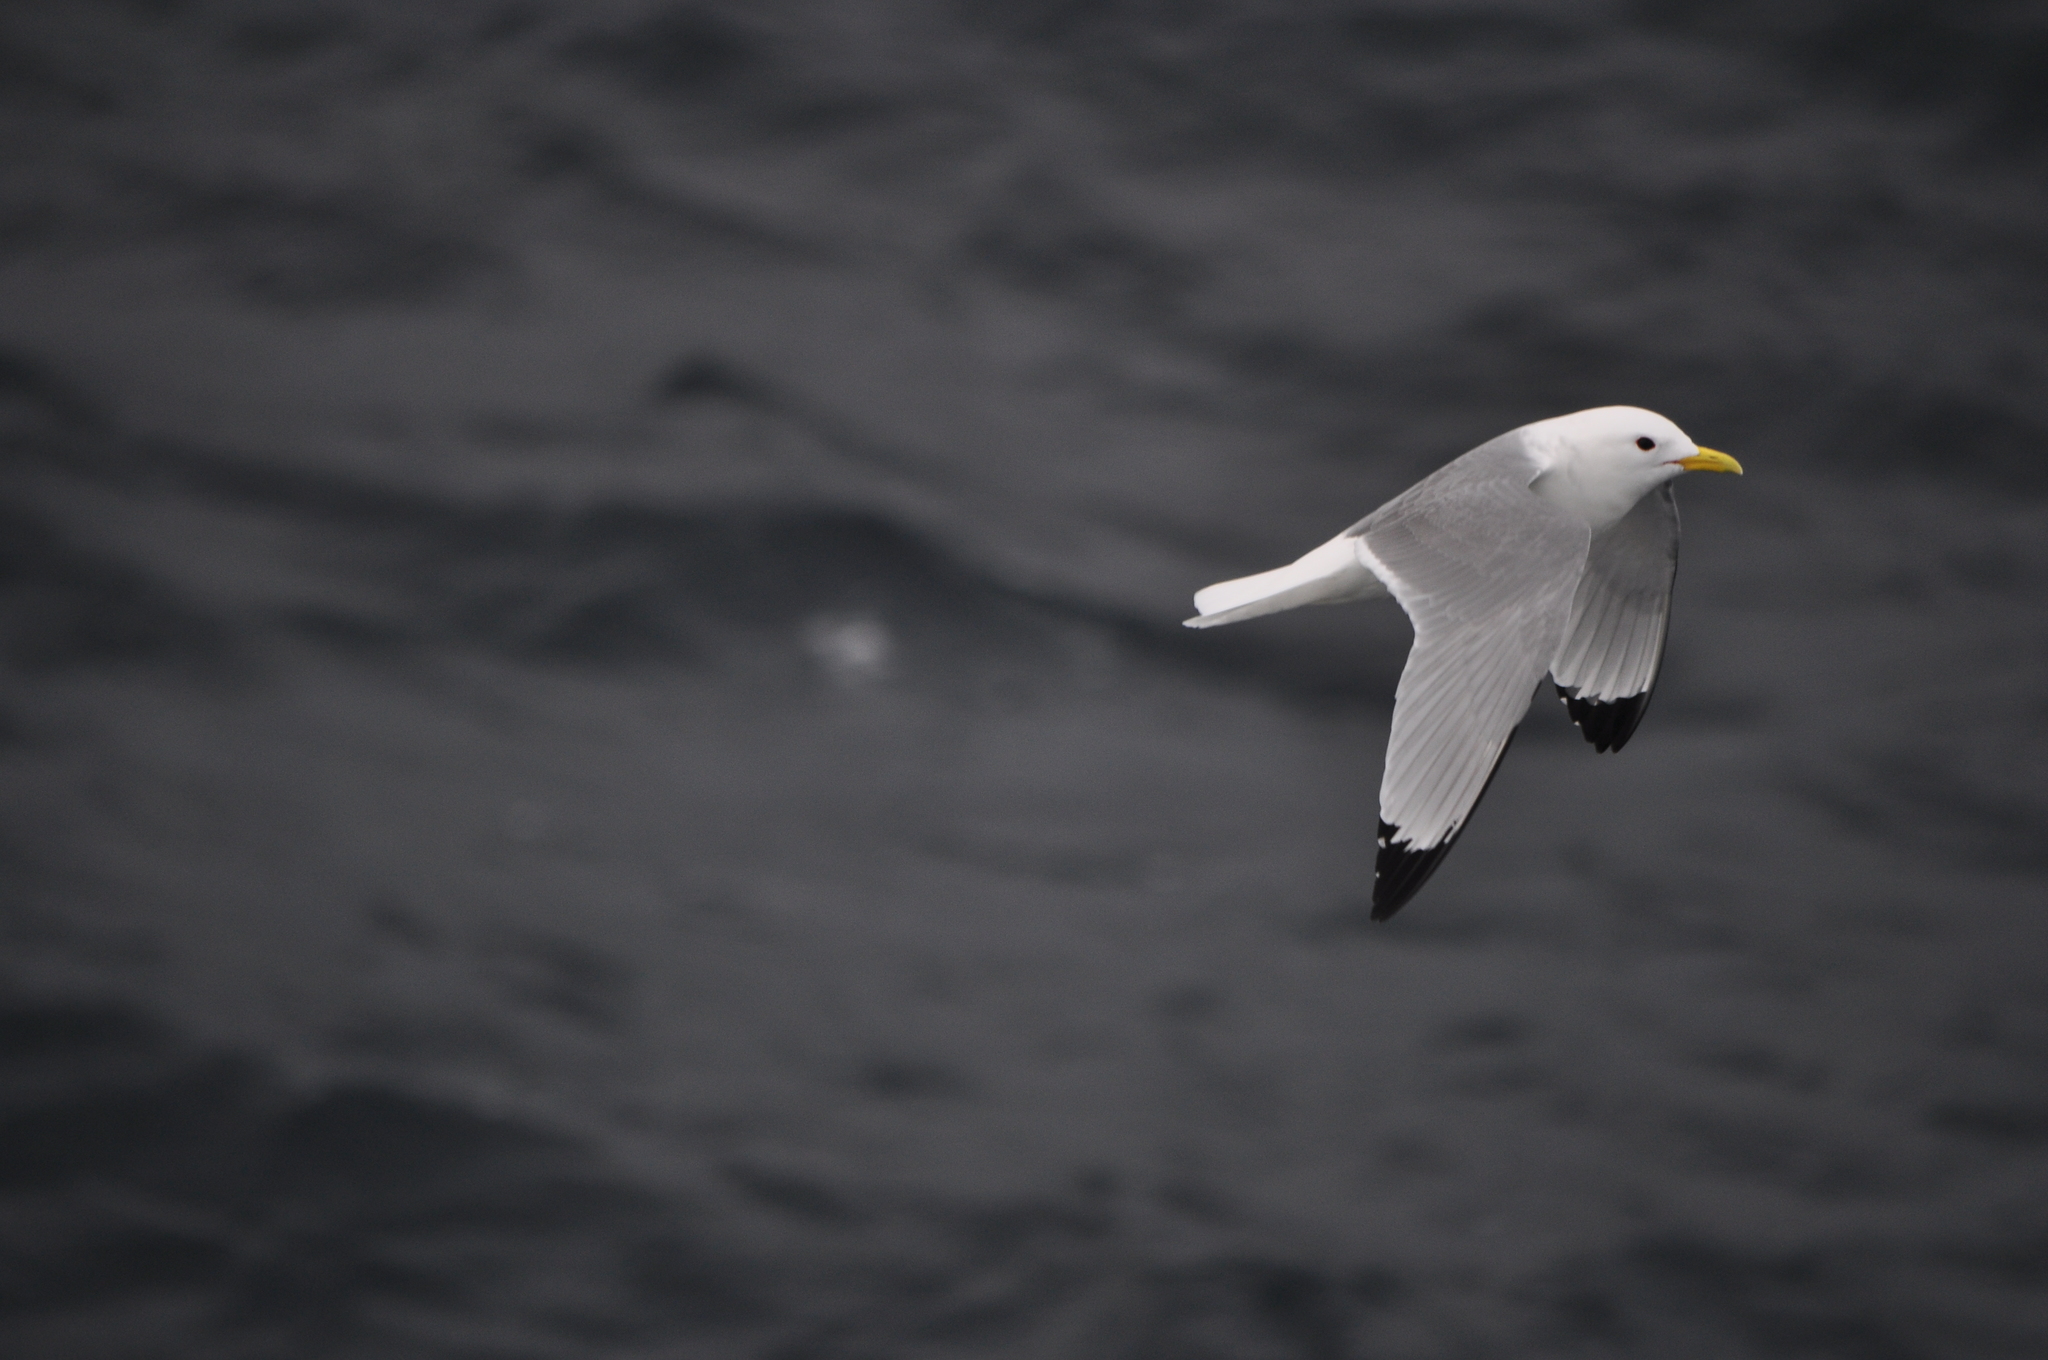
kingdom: Animalia
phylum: Chordata
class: Aves
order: Charadriiformes
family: Laridae
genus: Rissa
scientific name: Rissa tridactyla
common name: Black-legged kittiwake
